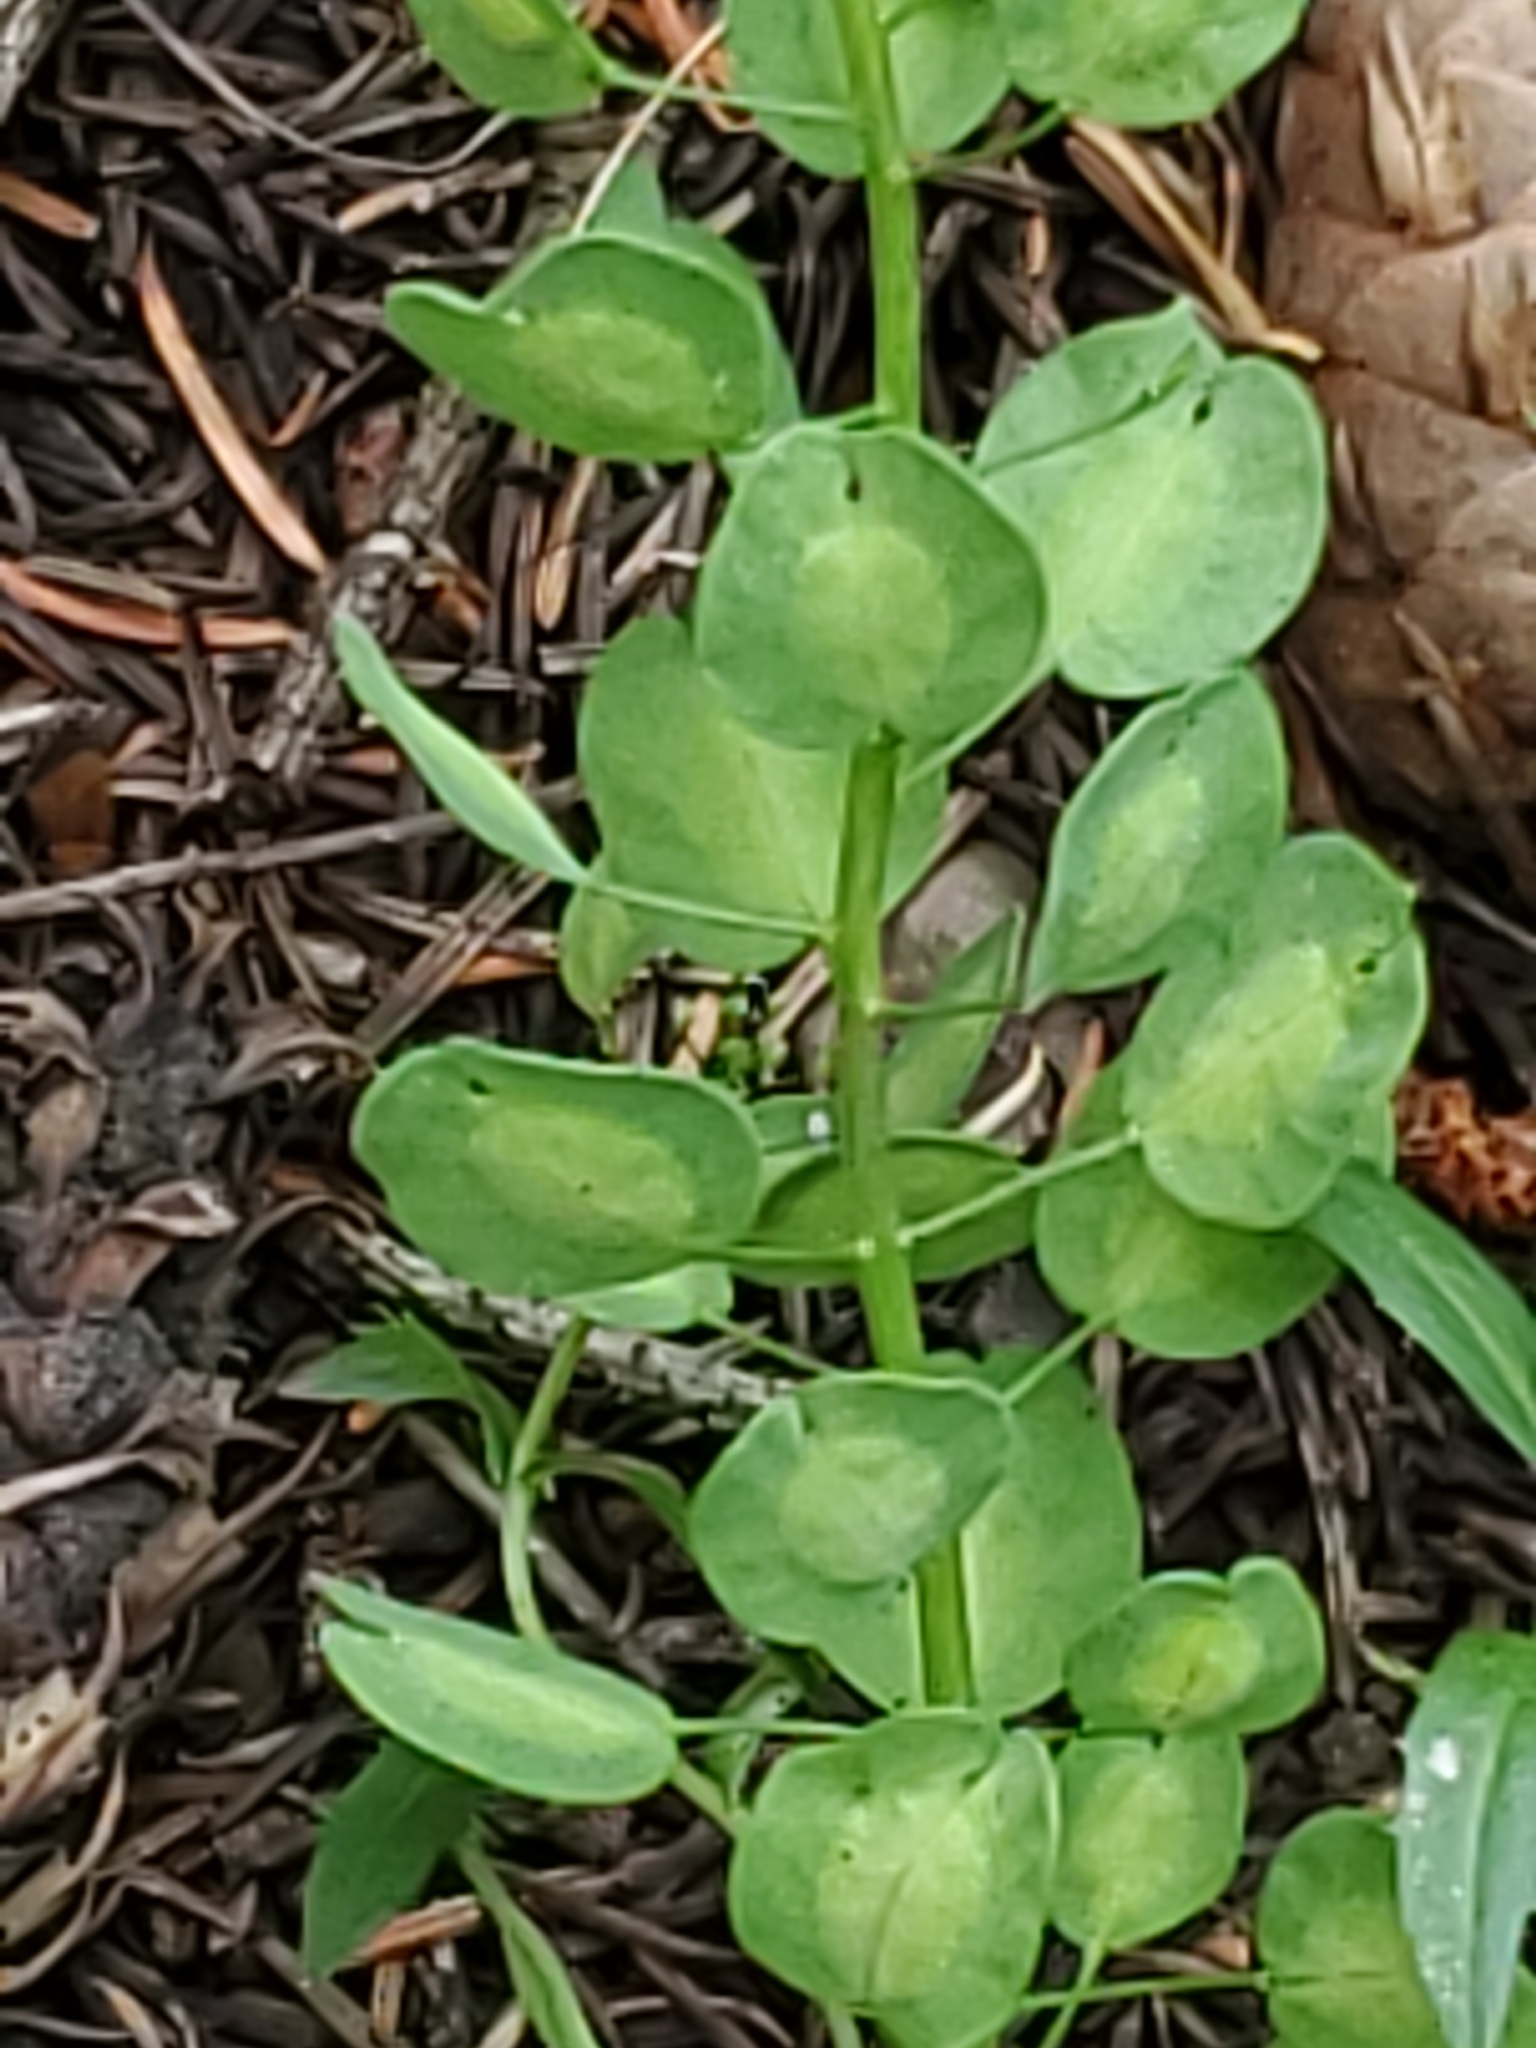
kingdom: Plantae
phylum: Tracheophyta
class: Magnoliopsida
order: Brassicales
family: Brassicaceae
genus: Thlaspi
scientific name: Thlaspi arvense
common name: Field pennycress
